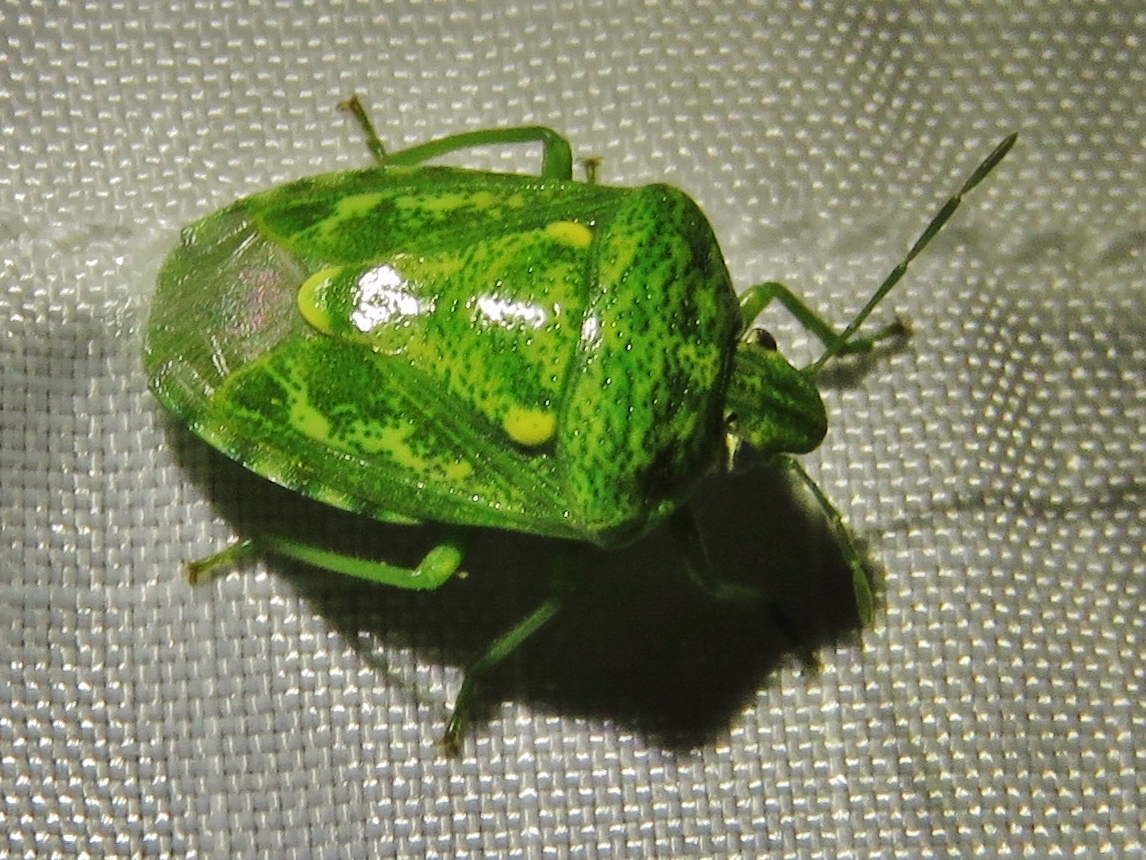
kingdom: Animalia
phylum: Arthropoda
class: Insecta
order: Hemiptera
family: Pentatomidae
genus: Banasa
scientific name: Banasa euchlora
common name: Cedar berry bug
